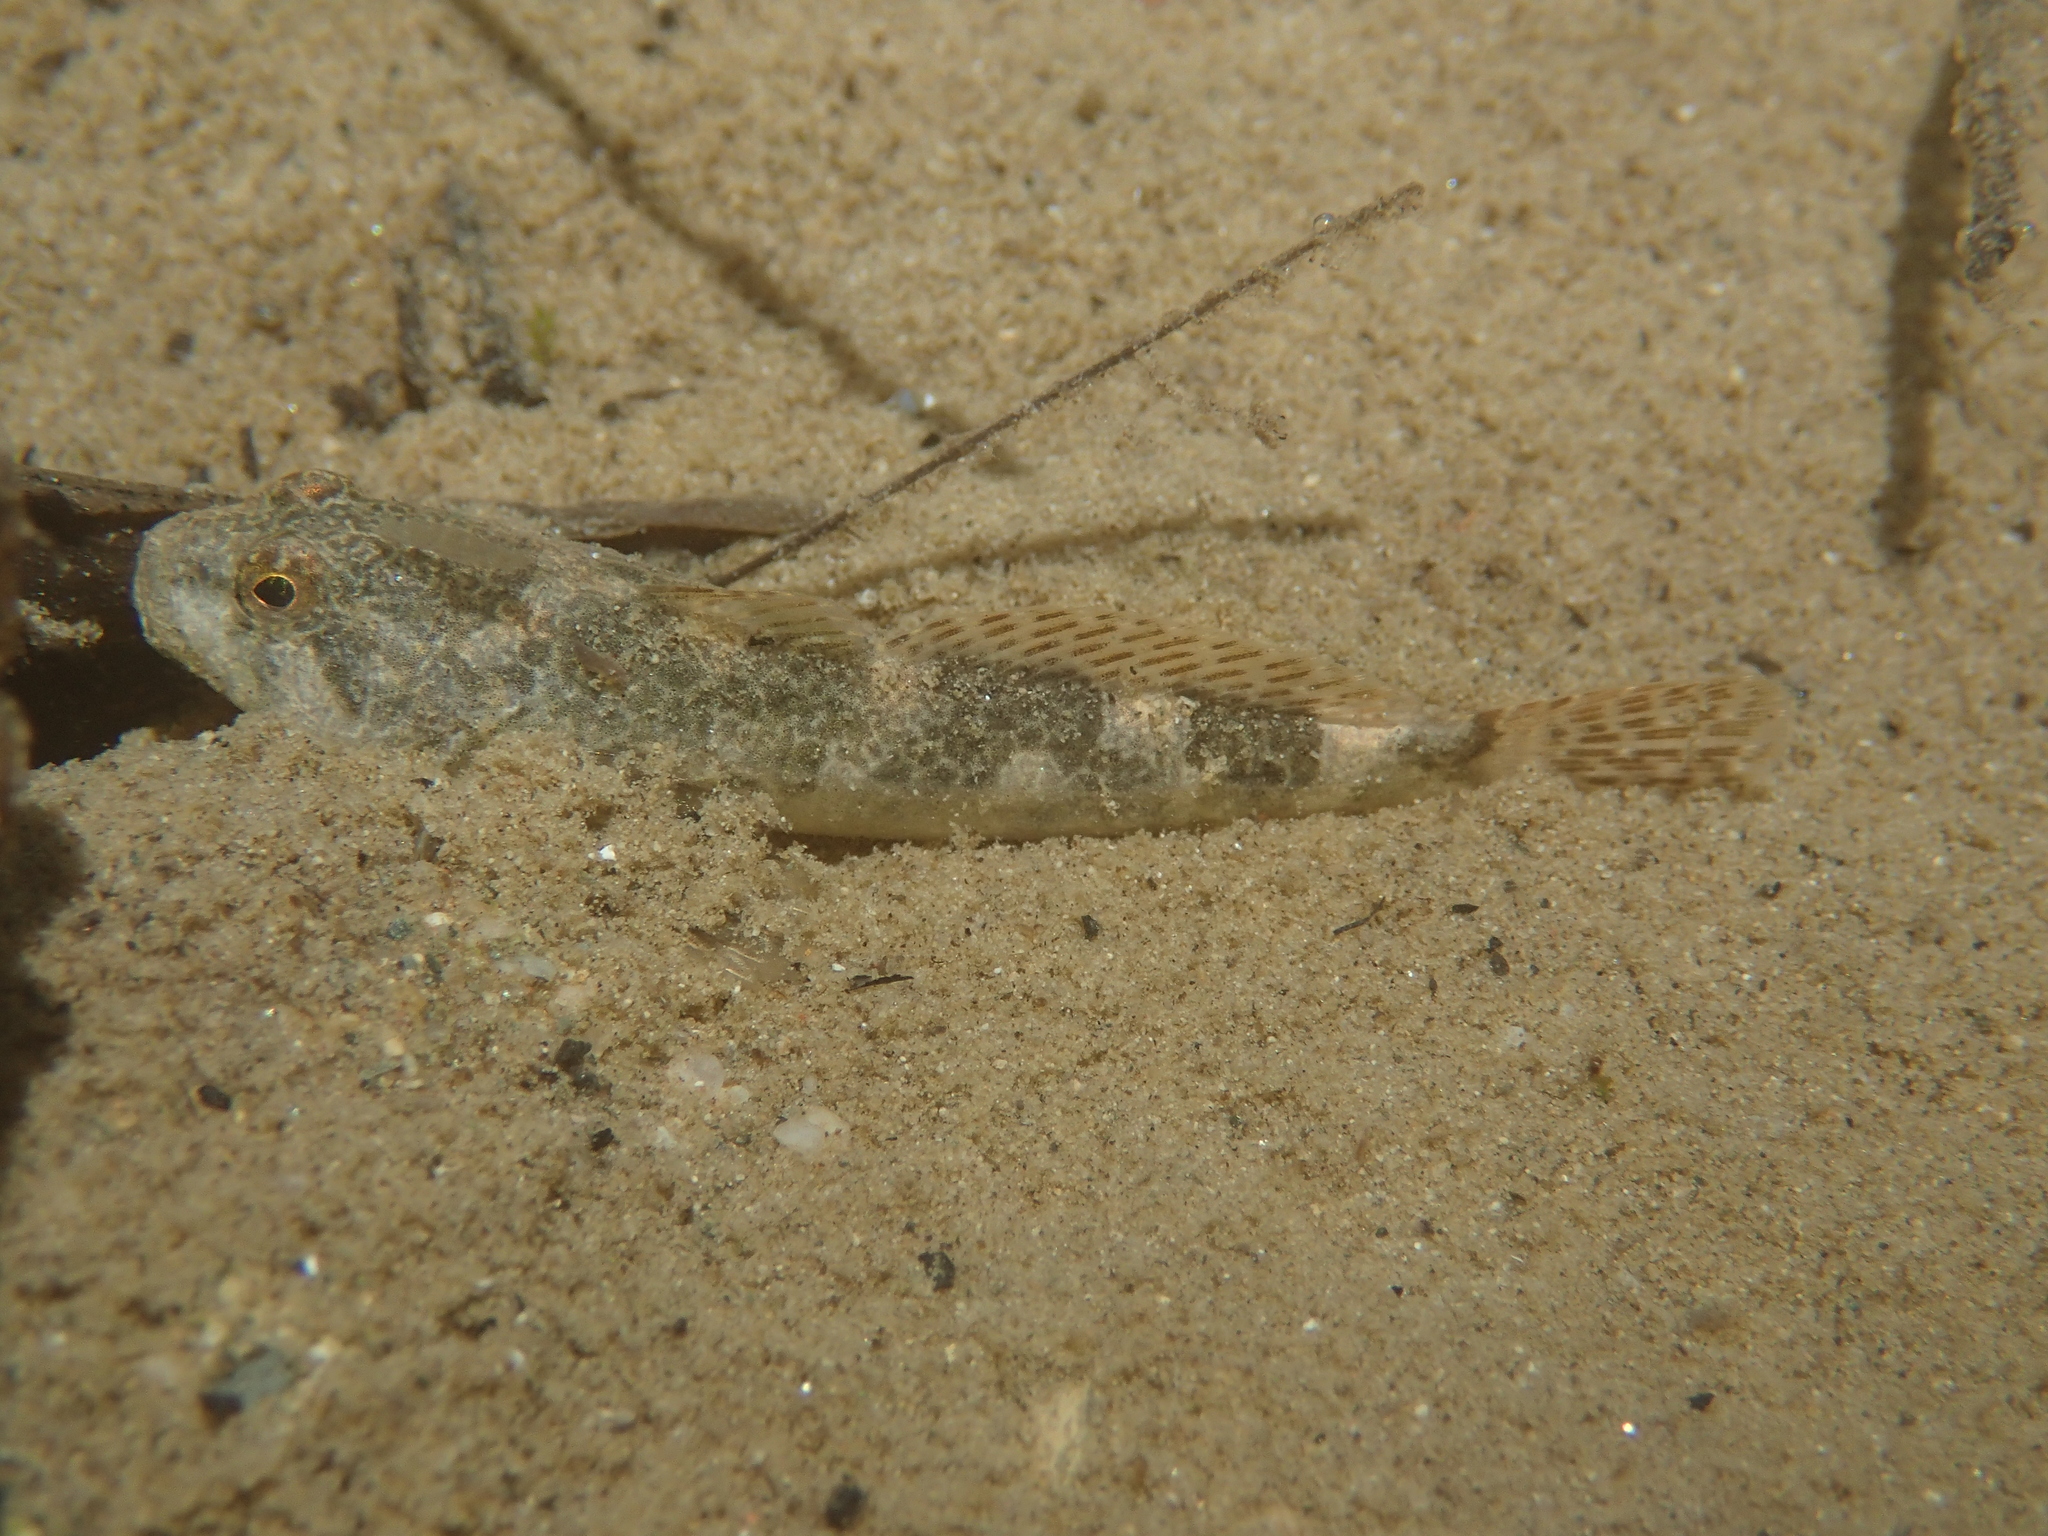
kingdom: Animalia
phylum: Chordata
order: Scorpaeniformes
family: Cottidae
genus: Cottus
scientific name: Cottus rondeleti
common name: Hérault sculpin
